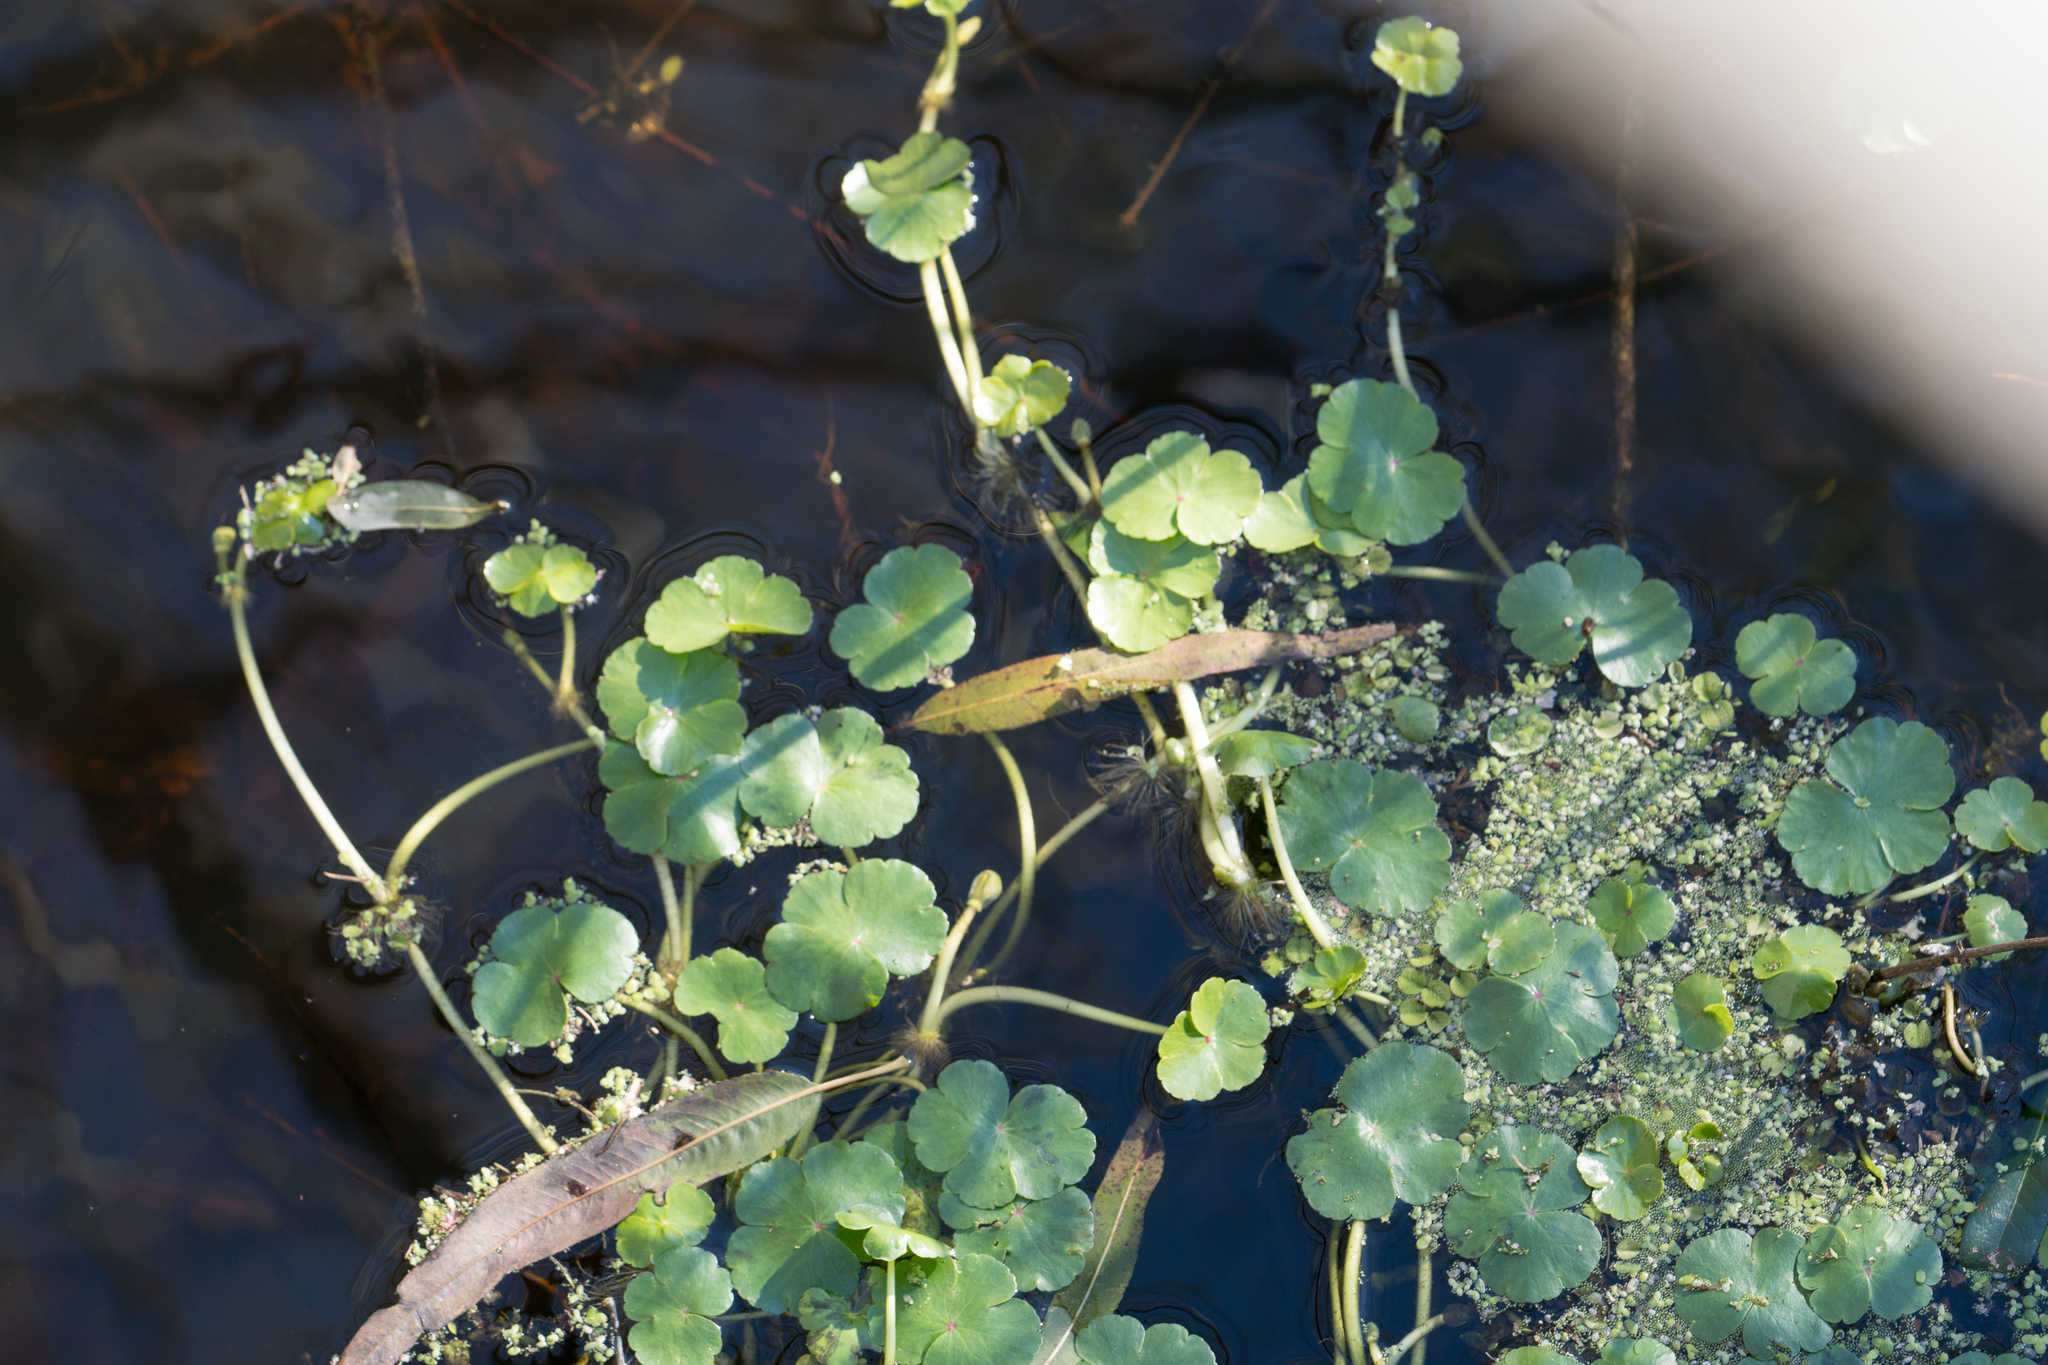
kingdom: Plantae
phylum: Tracheophyta
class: Magnoliopsida
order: Apiales
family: Araliaceae
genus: Hydrocotyle
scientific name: Hydrocotyle ranunculoides
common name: Floating pennywort
